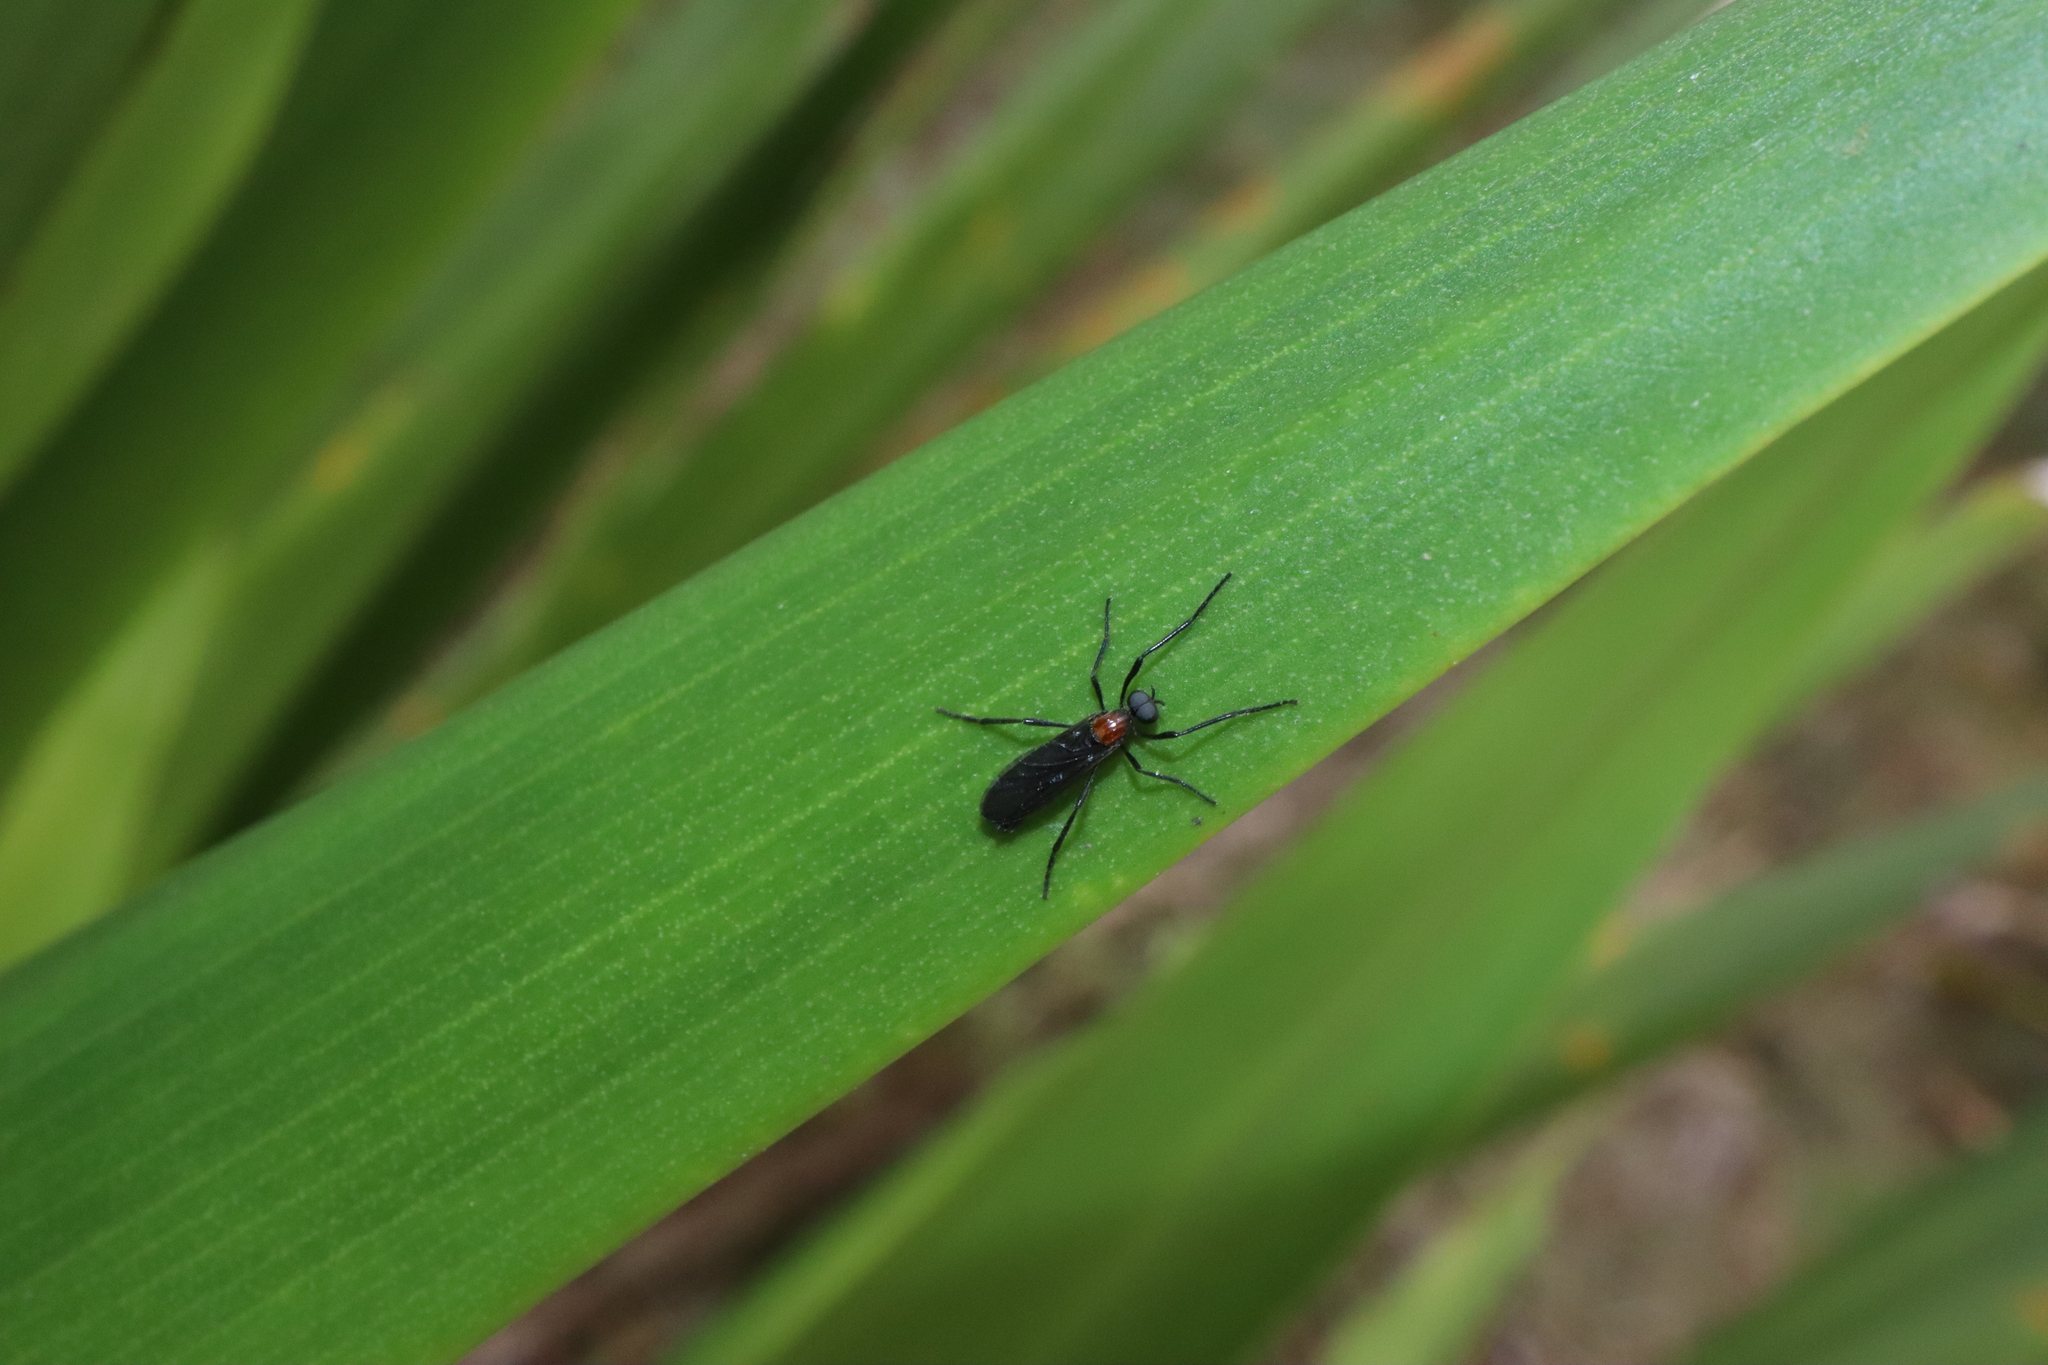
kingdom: Animalia
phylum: Arthropoda
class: Insecta
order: Diptera
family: Bibionidae
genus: Plecia
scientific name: Plecia dimidiata
